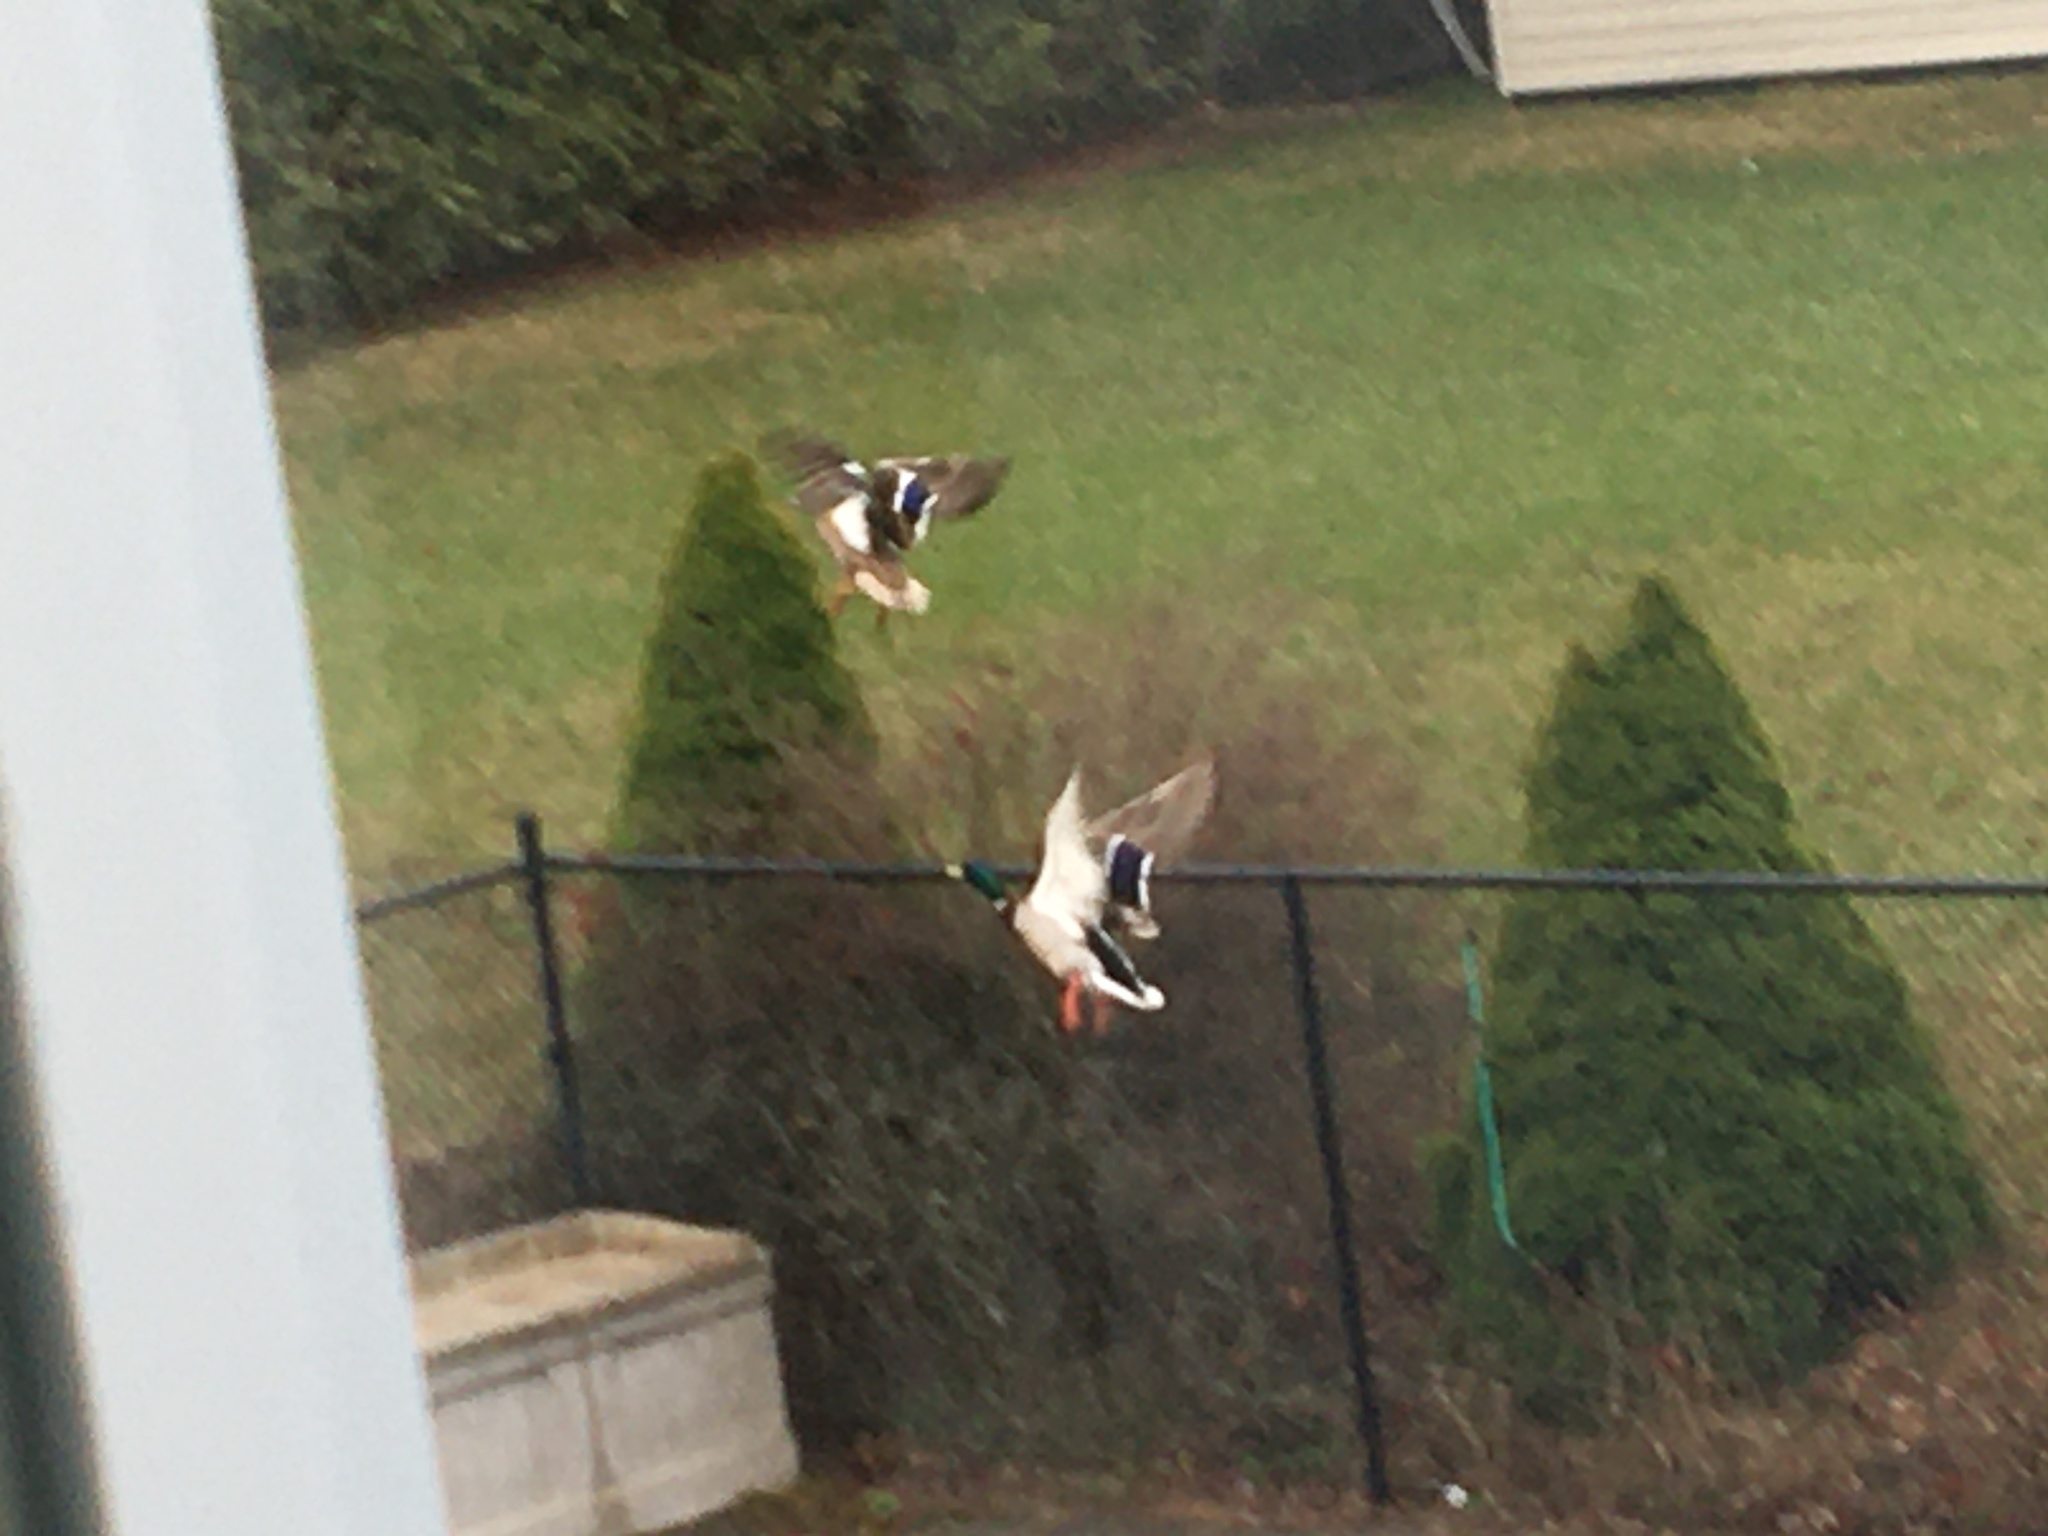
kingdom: Animalia
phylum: Chordata
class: Aves
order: Anseriformes
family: Anatidae
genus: Anas
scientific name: Anas platyrhynchos
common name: Mallard
